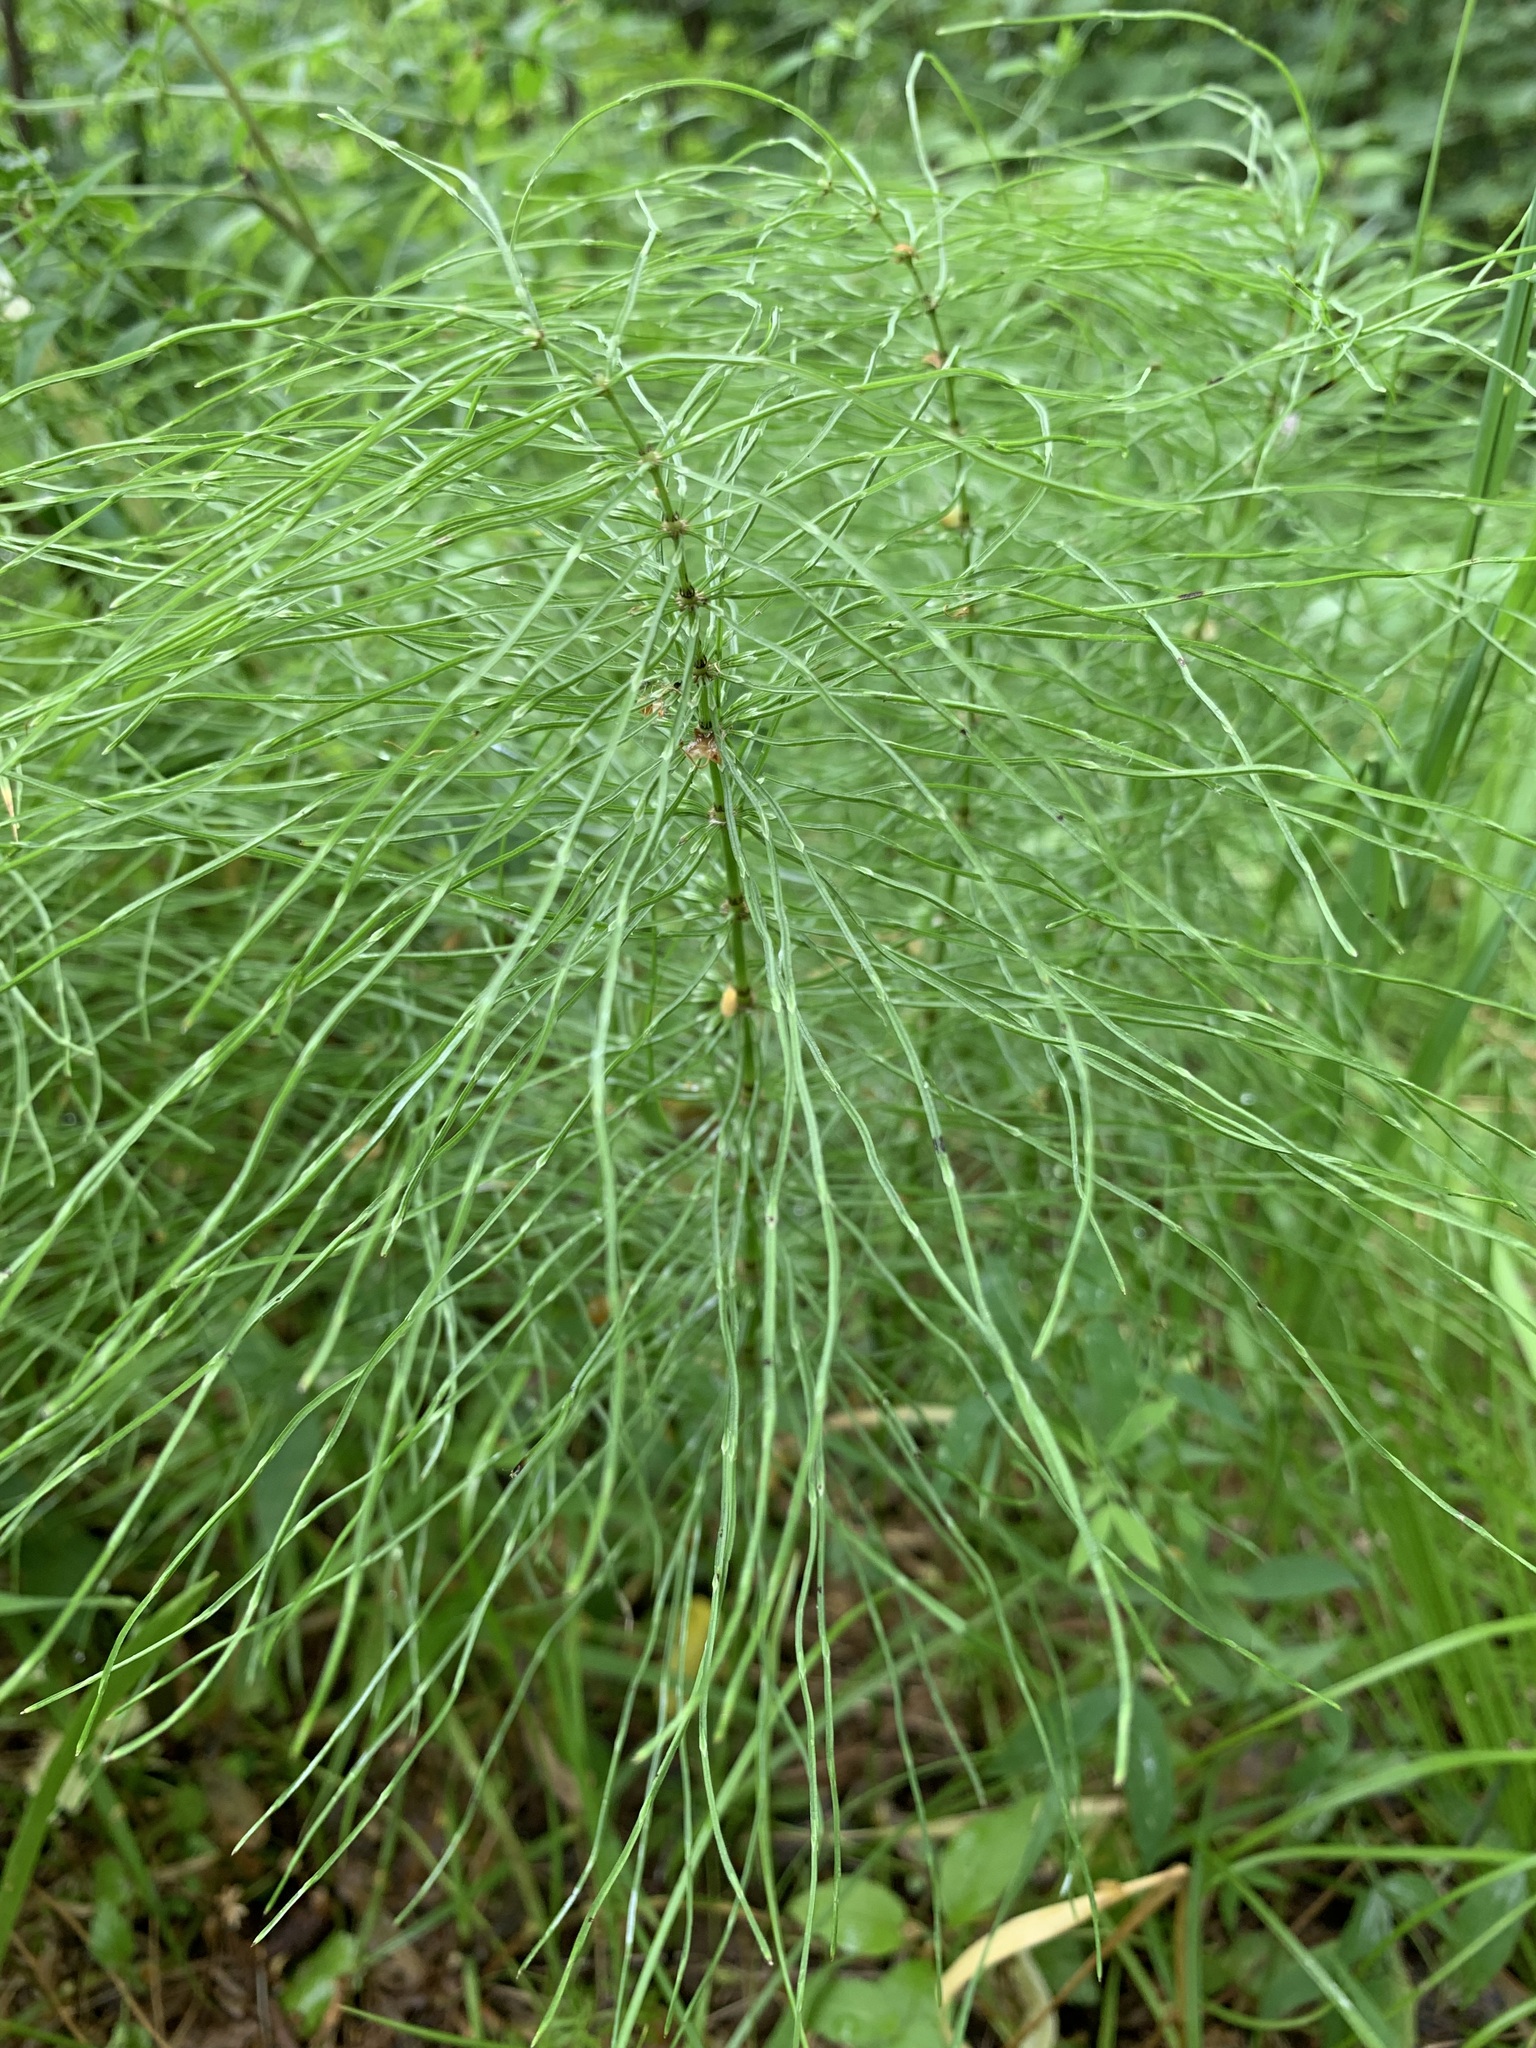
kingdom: Plantae
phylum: Tracheophyta
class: Polypodiopsida
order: Equisetales
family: Equisetaceae
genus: Equisetum
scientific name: Equisetum pratense
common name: Meadow horsetail
